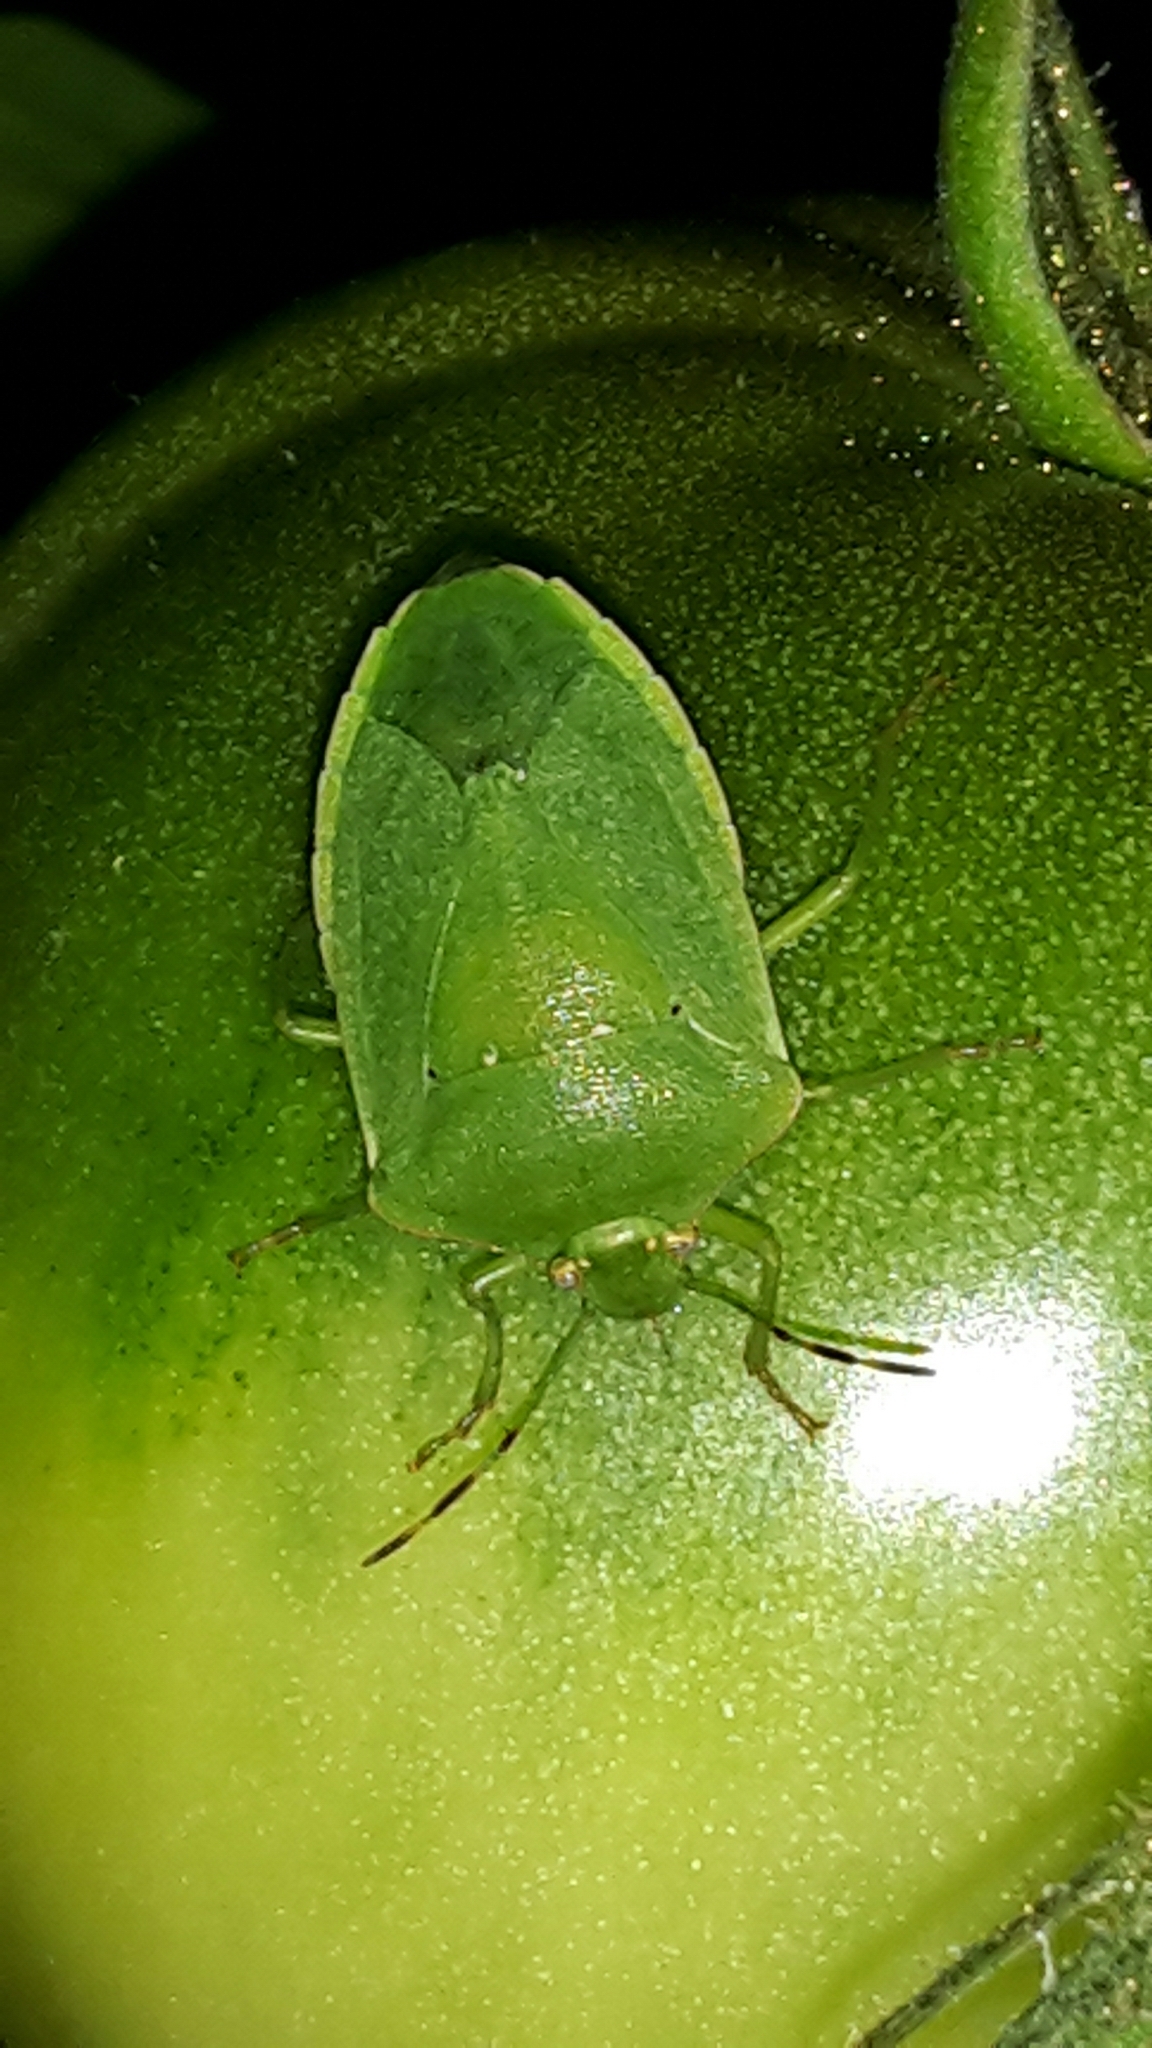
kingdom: Animalia
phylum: Arthropoda
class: Insecta
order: Hemiptera
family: Pentatomidae
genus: Nezara
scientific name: Nezara viridula
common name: Southern green stink bug
